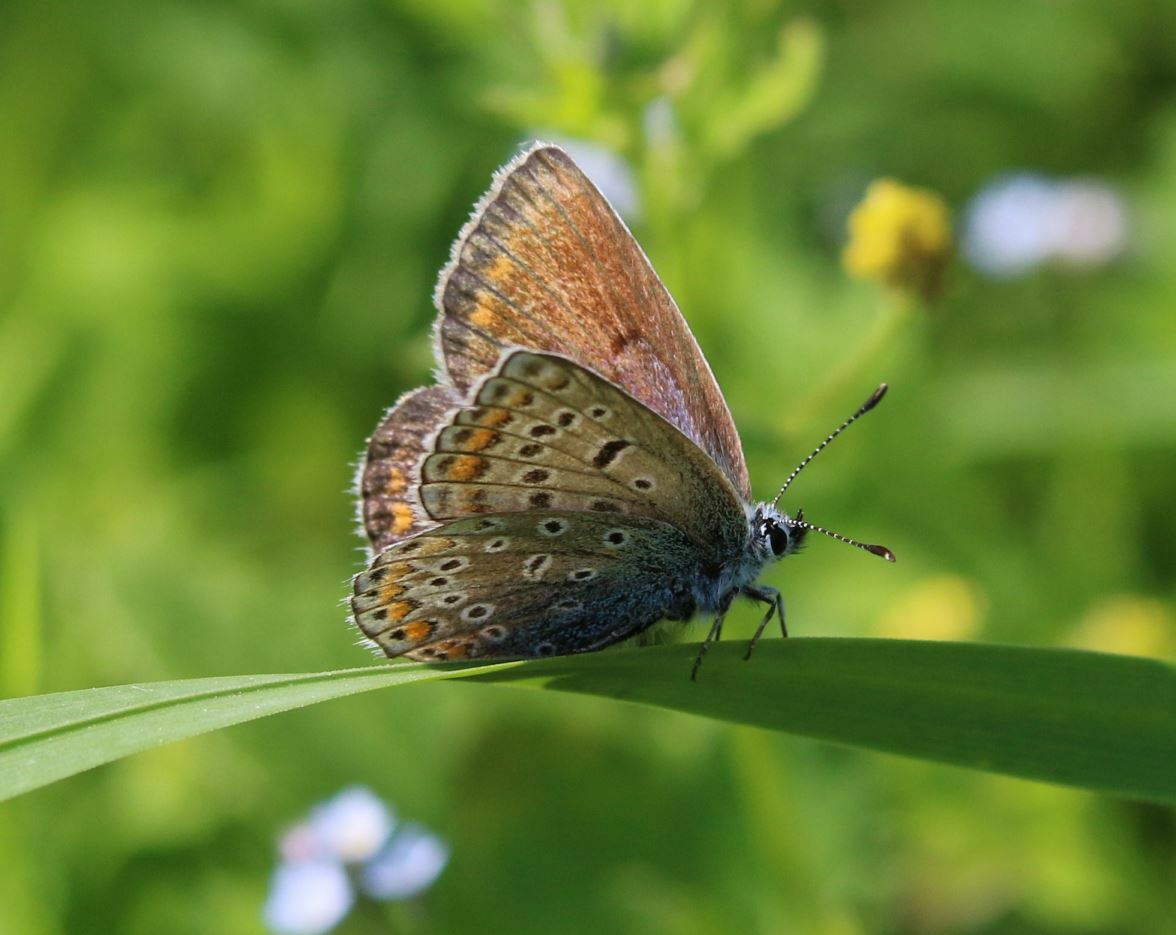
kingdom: Animalia
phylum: Arthropoda
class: Insecta
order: Lepidoptera
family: Lycaenidae
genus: Polyommatus
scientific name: Polyommatus icarus
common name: Common blue
